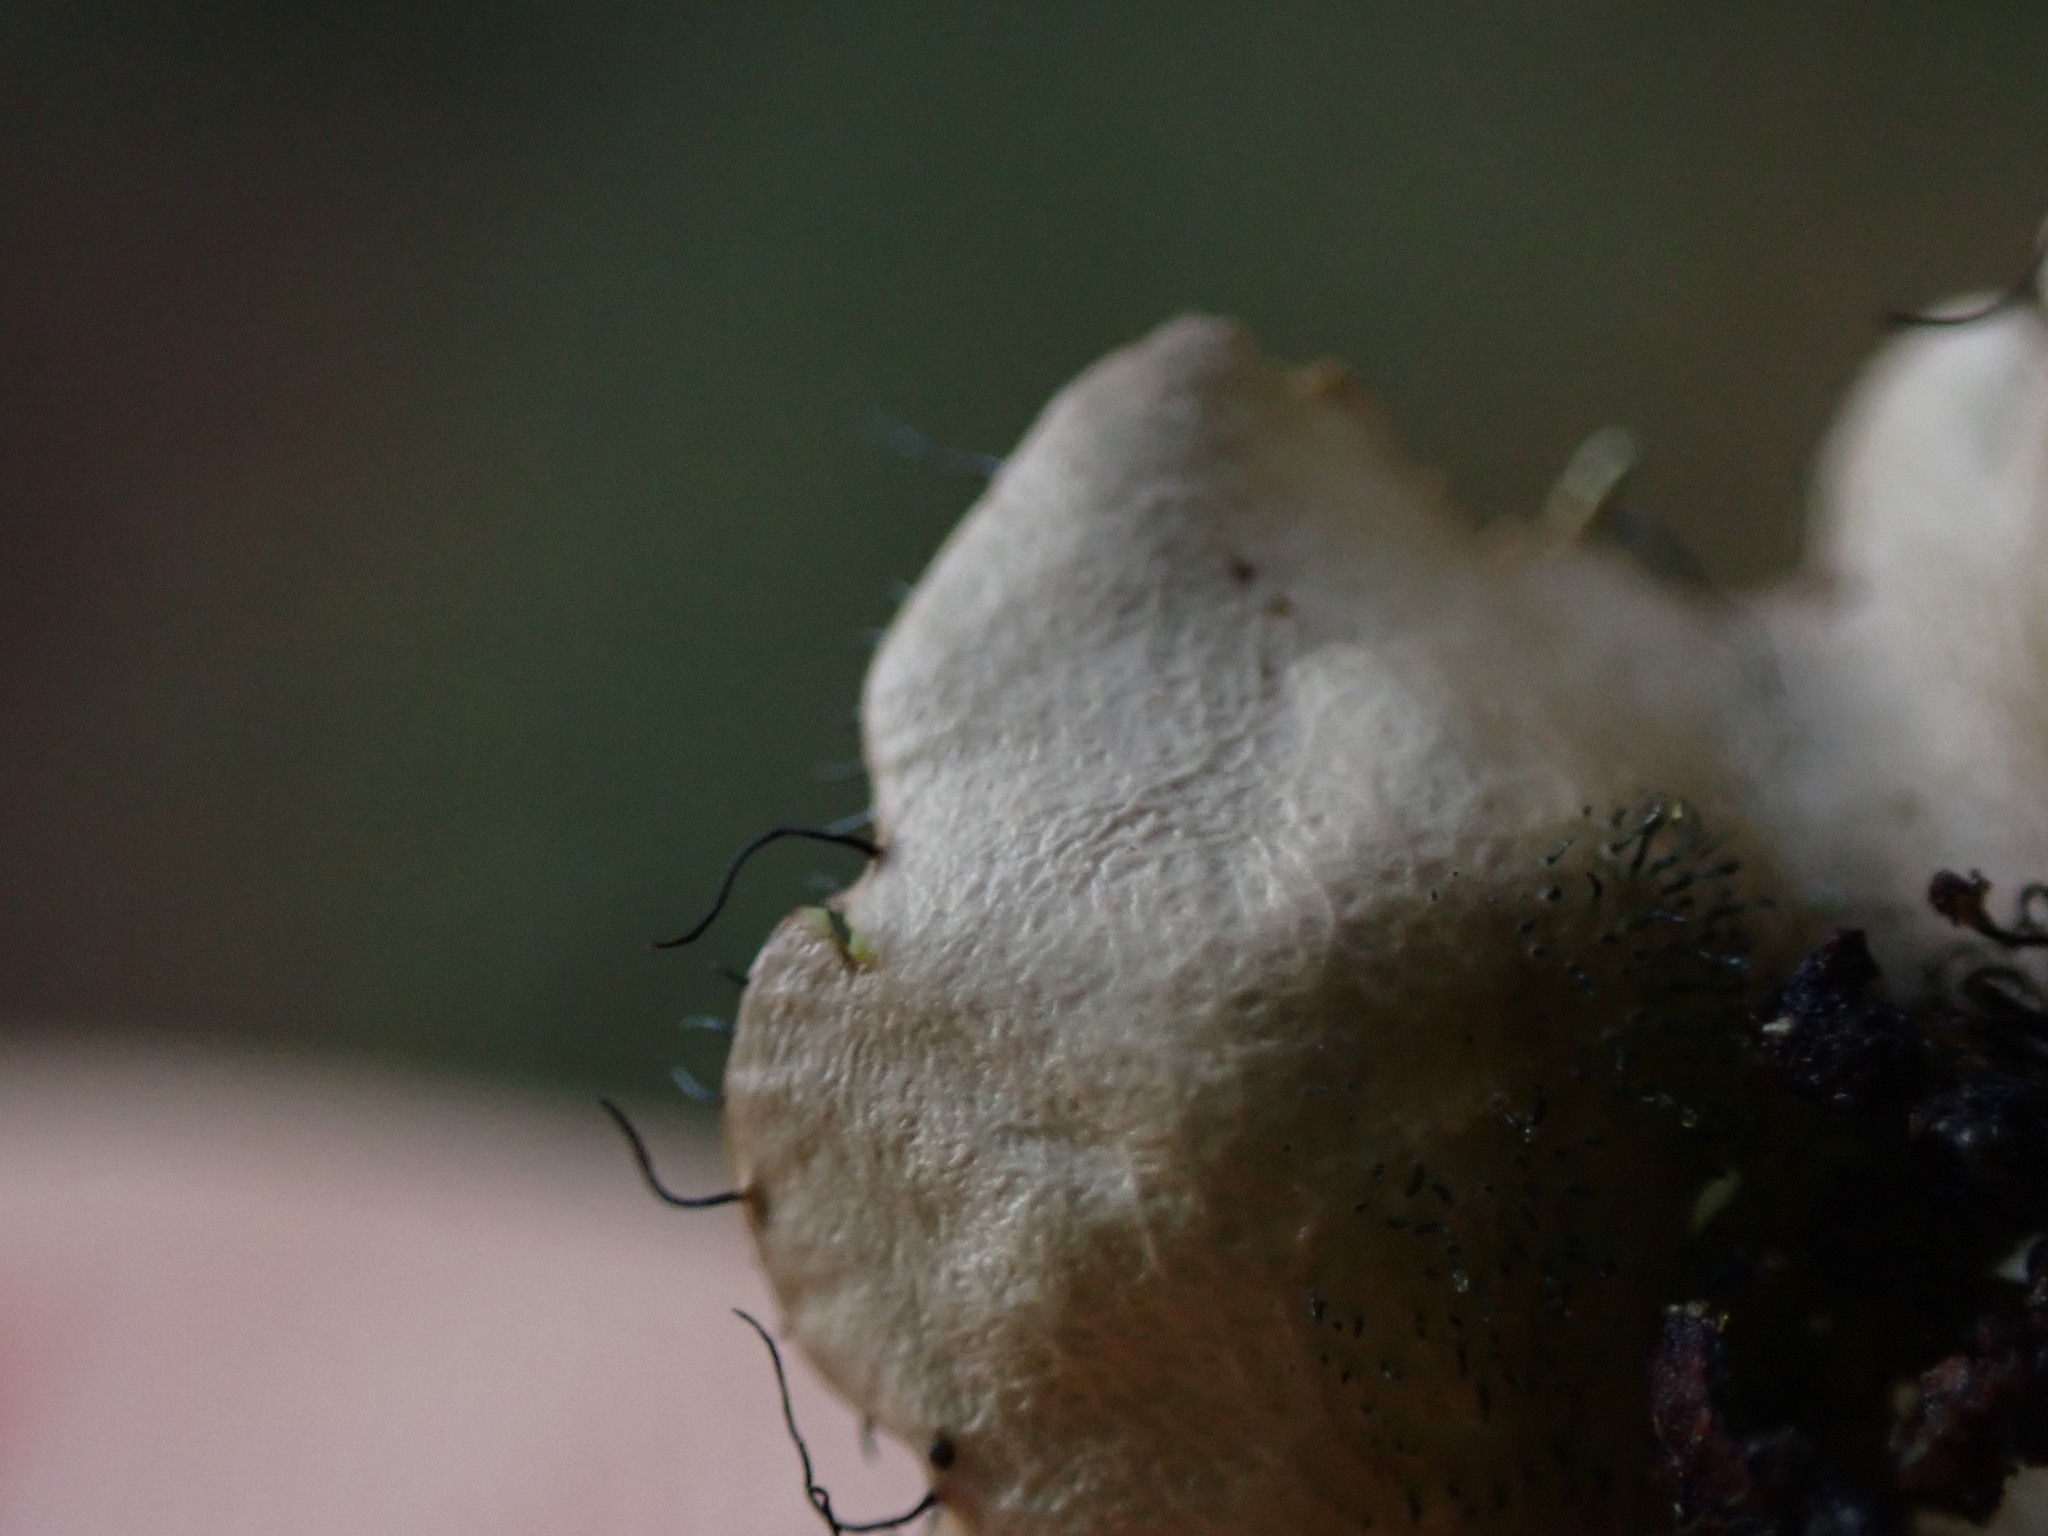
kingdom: Fungi
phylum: Ascomycota
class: Lecanoromycetes
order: Lecanorales
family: Parmeliaceae
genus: Parmotrema
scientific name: Parmotrema arnoldii
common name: Arnold's parmotrema lichen
